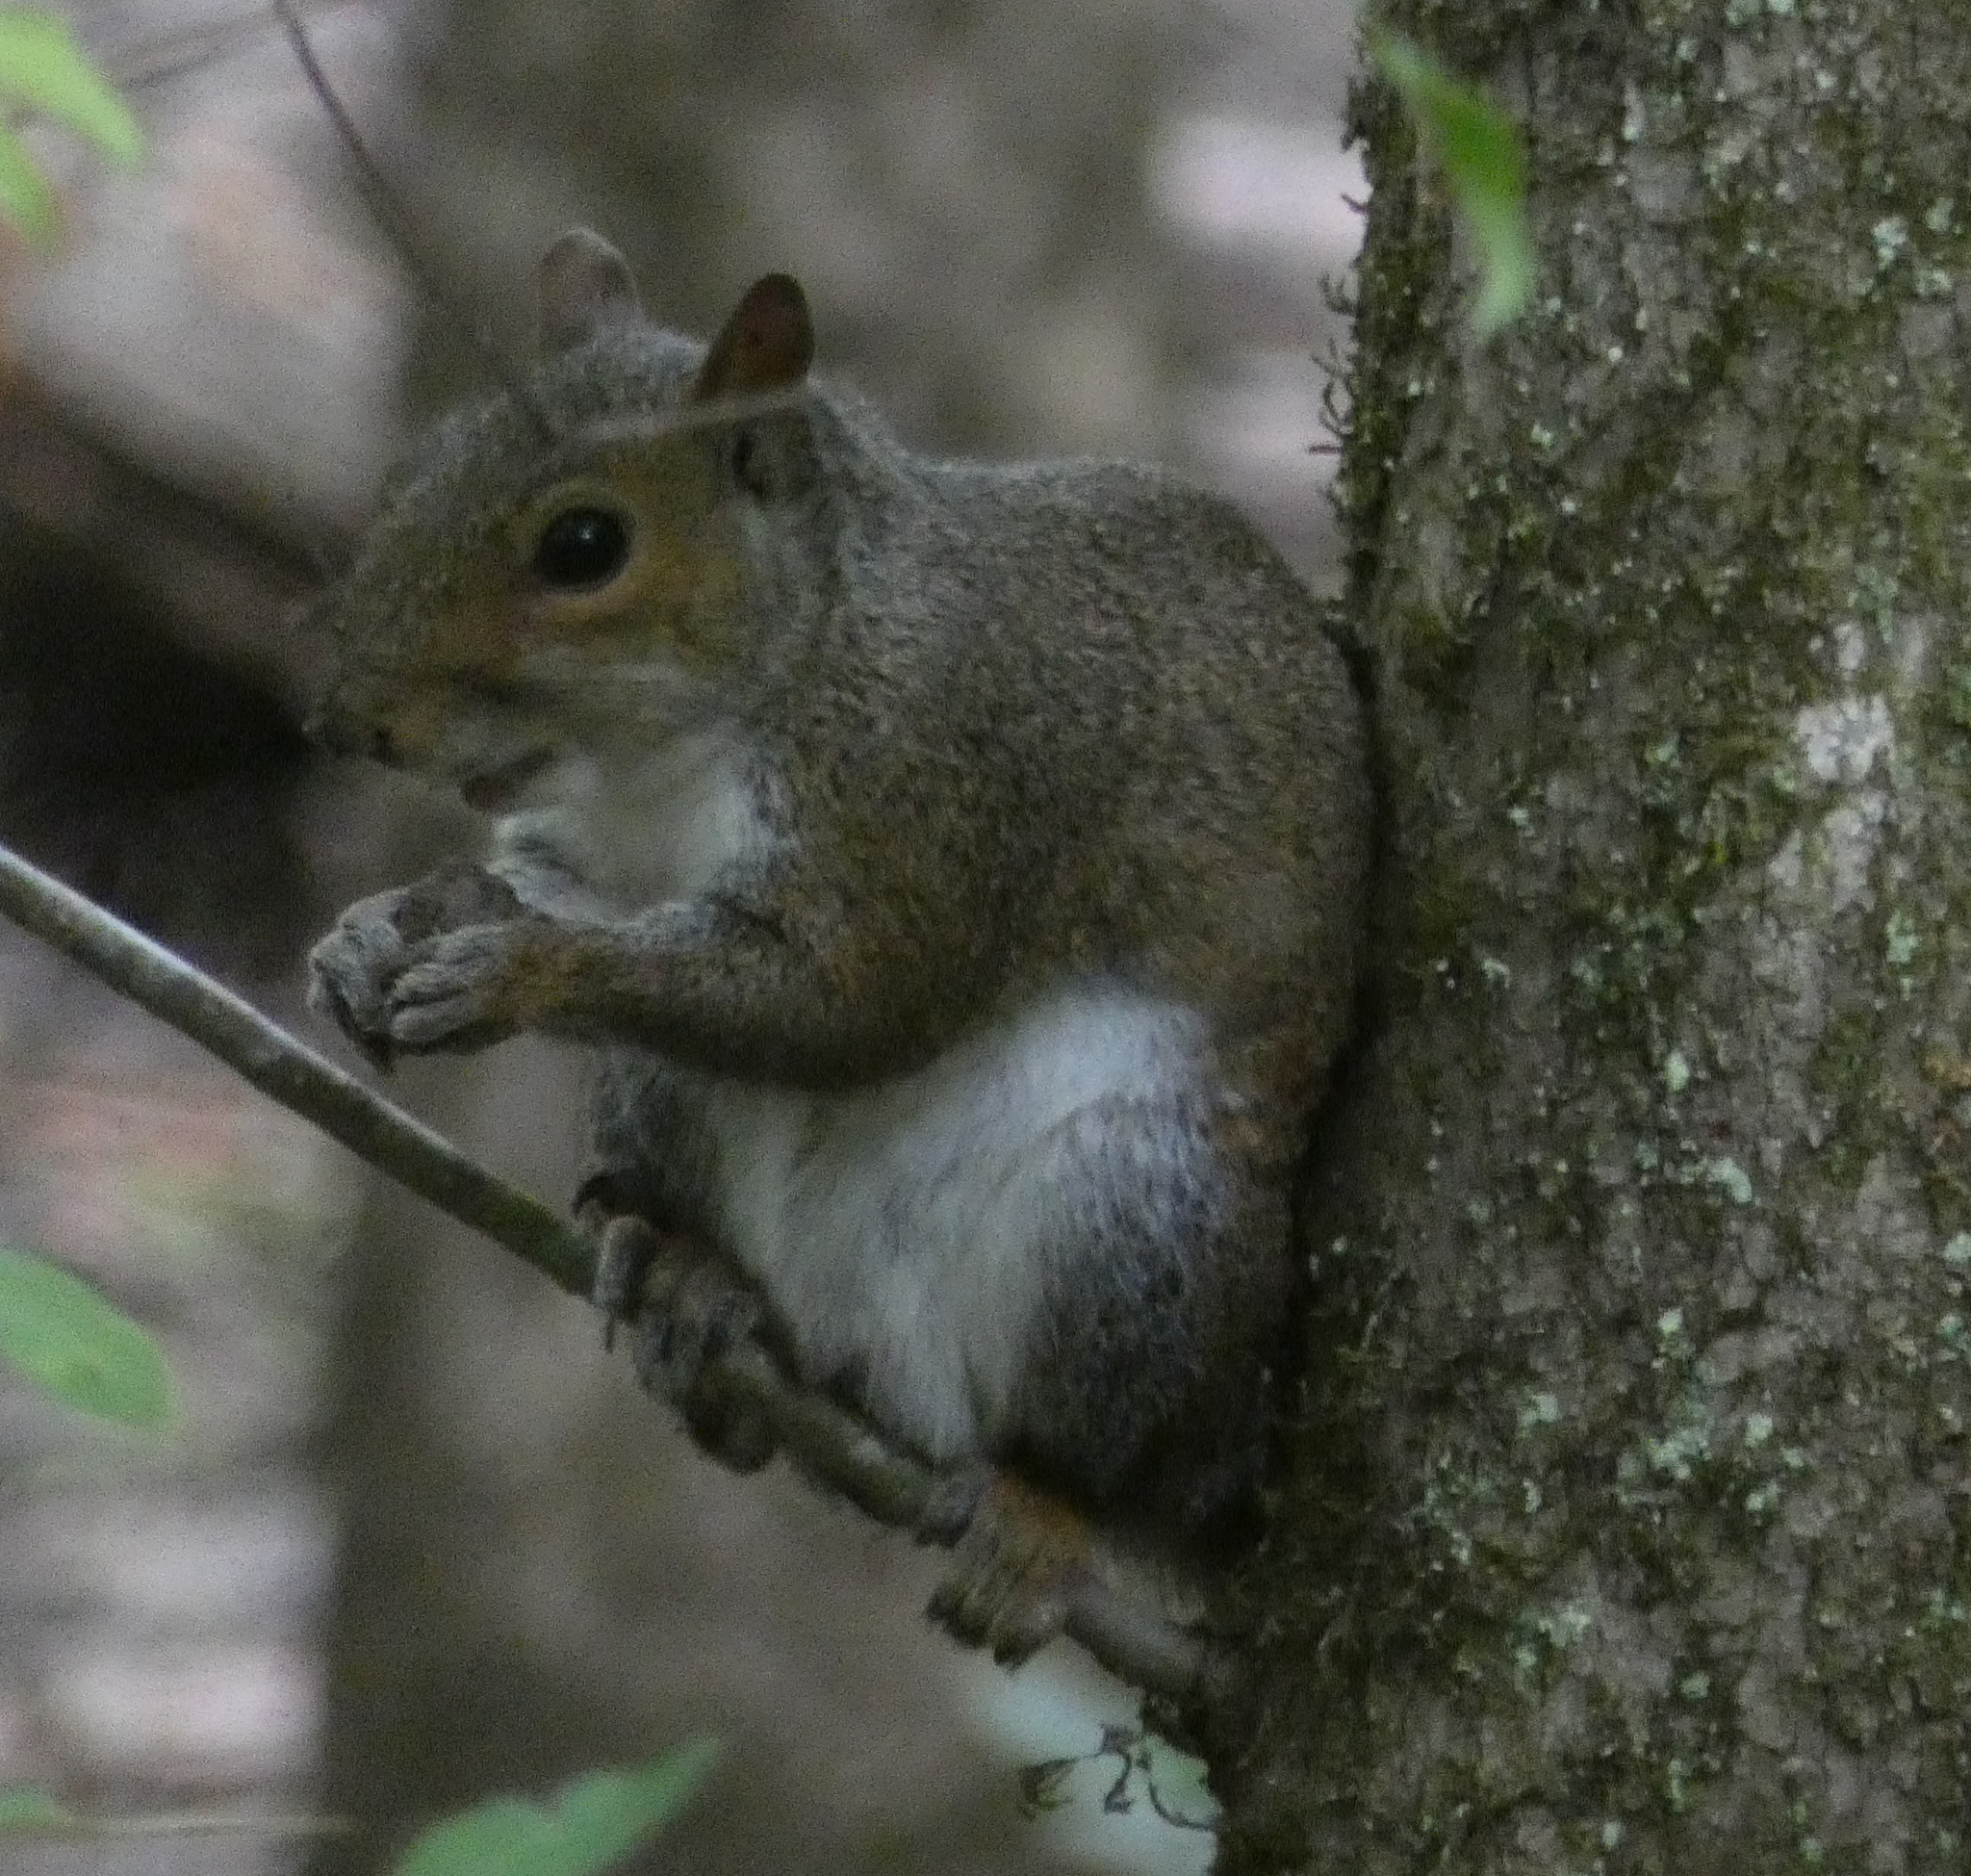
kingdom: Animalia
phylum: Chordata
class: Mammalia
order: Rodentia
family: Sciuridae
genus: Sciurus
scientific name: Sciurus carolinensis
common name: Eastern gray squirrel
